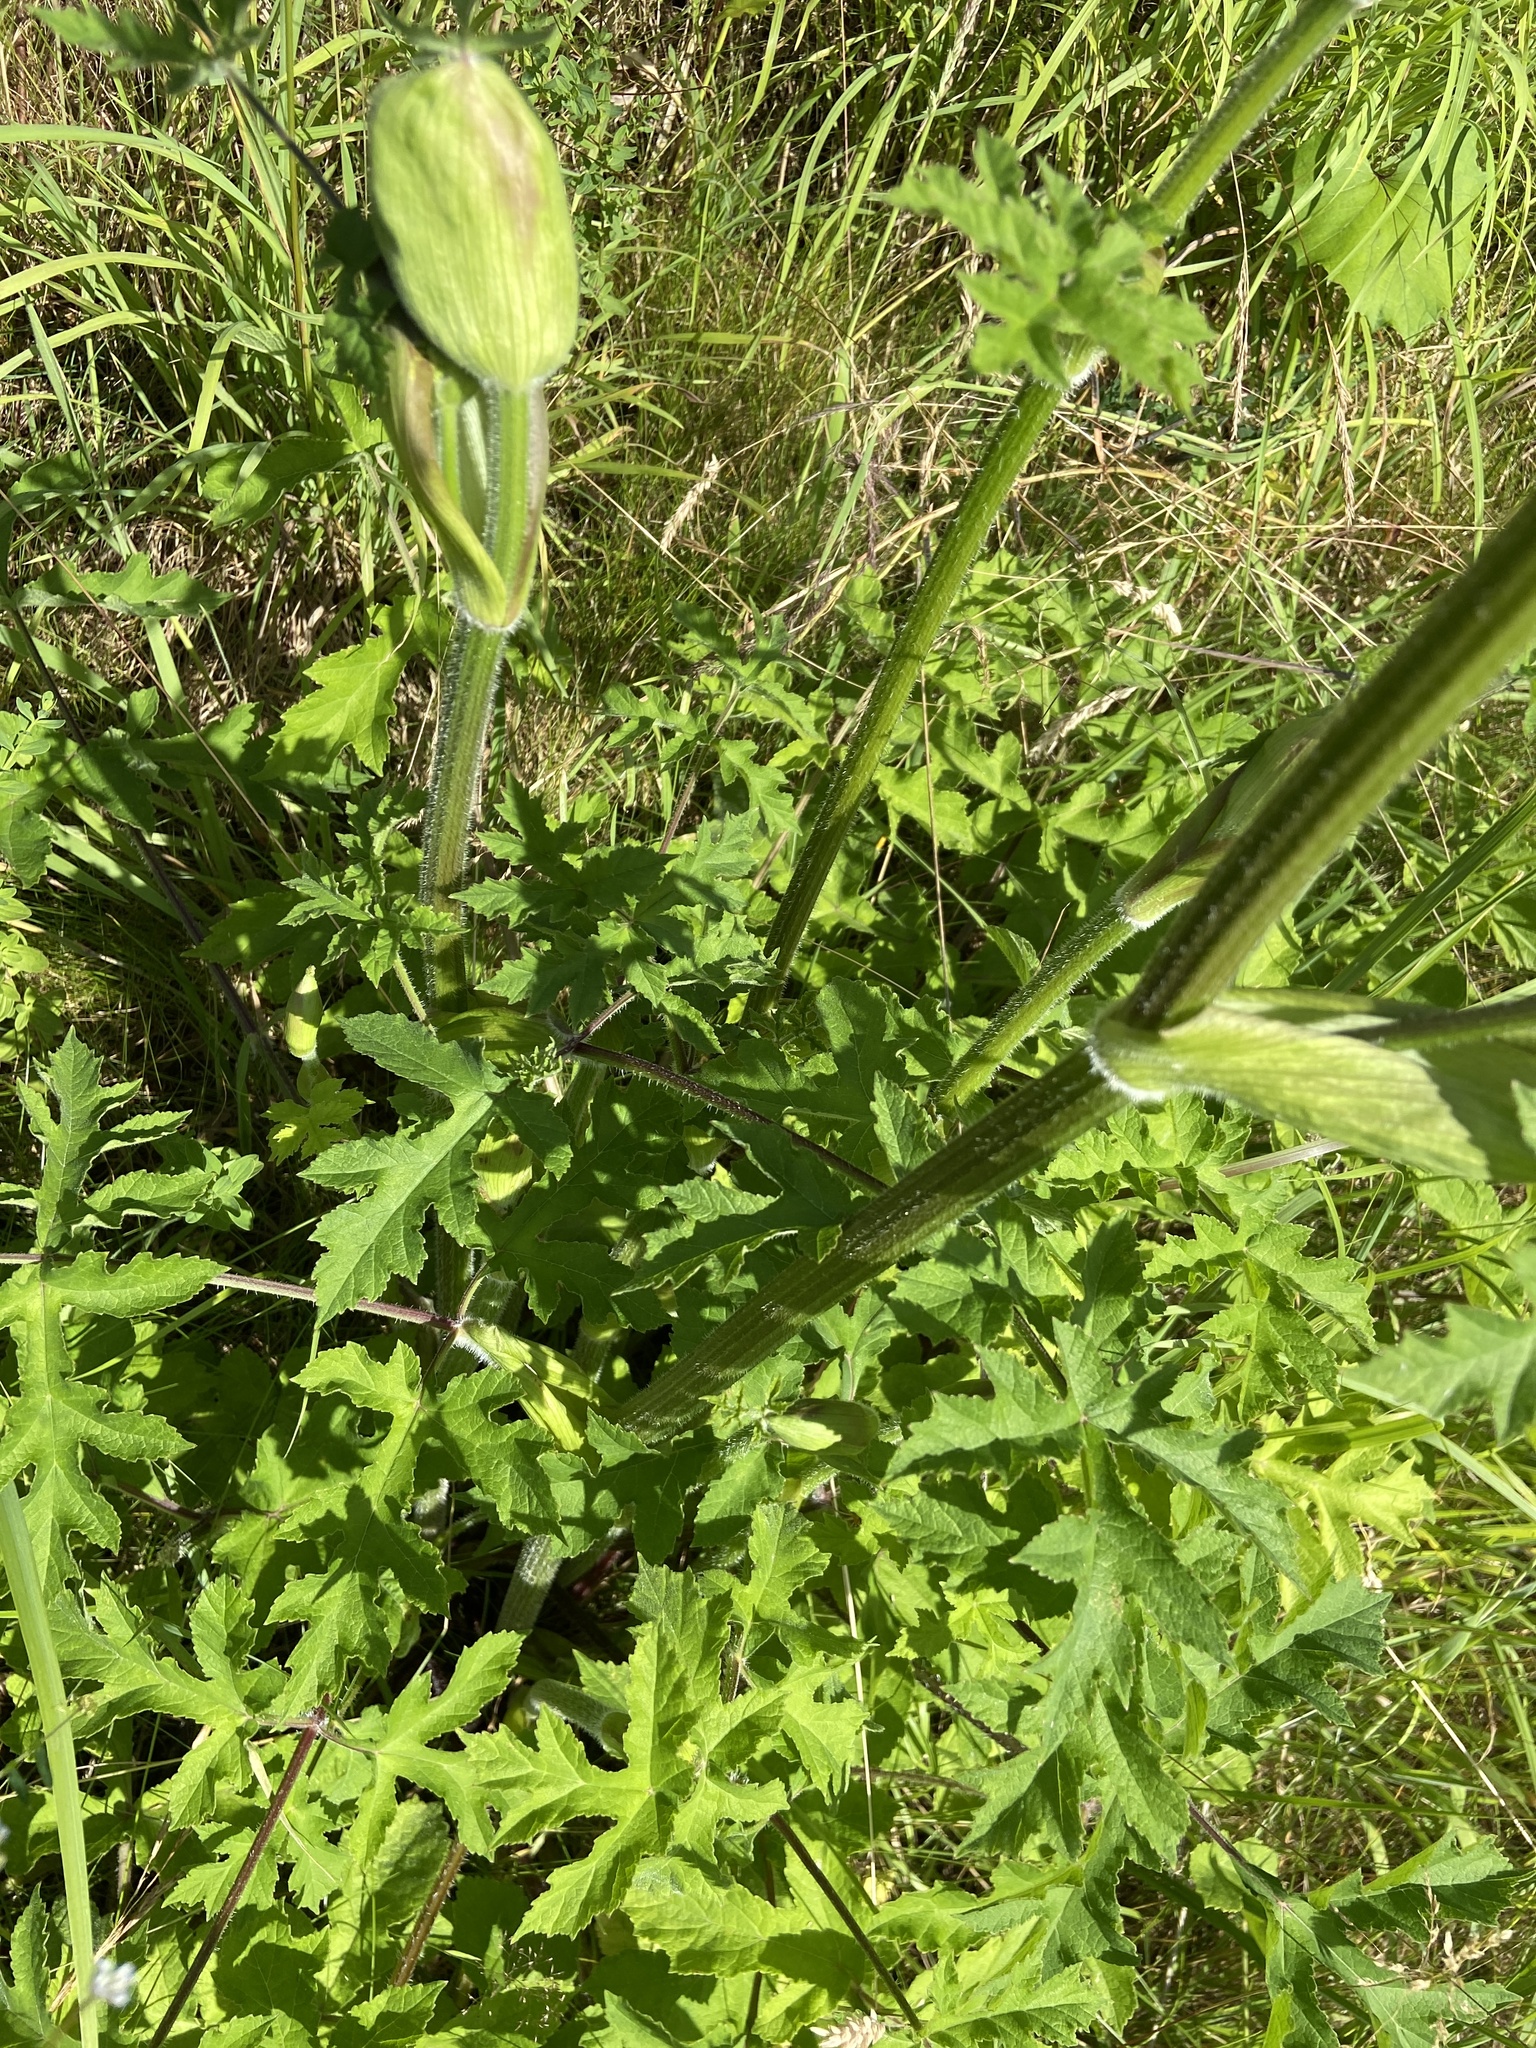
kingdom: Plantae
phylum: Tracheophyta
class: Magnoliopsida
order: Apiales
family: Apiaceae
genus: Heracleum
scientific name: Heracleum sphondylium
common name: Hogweed
